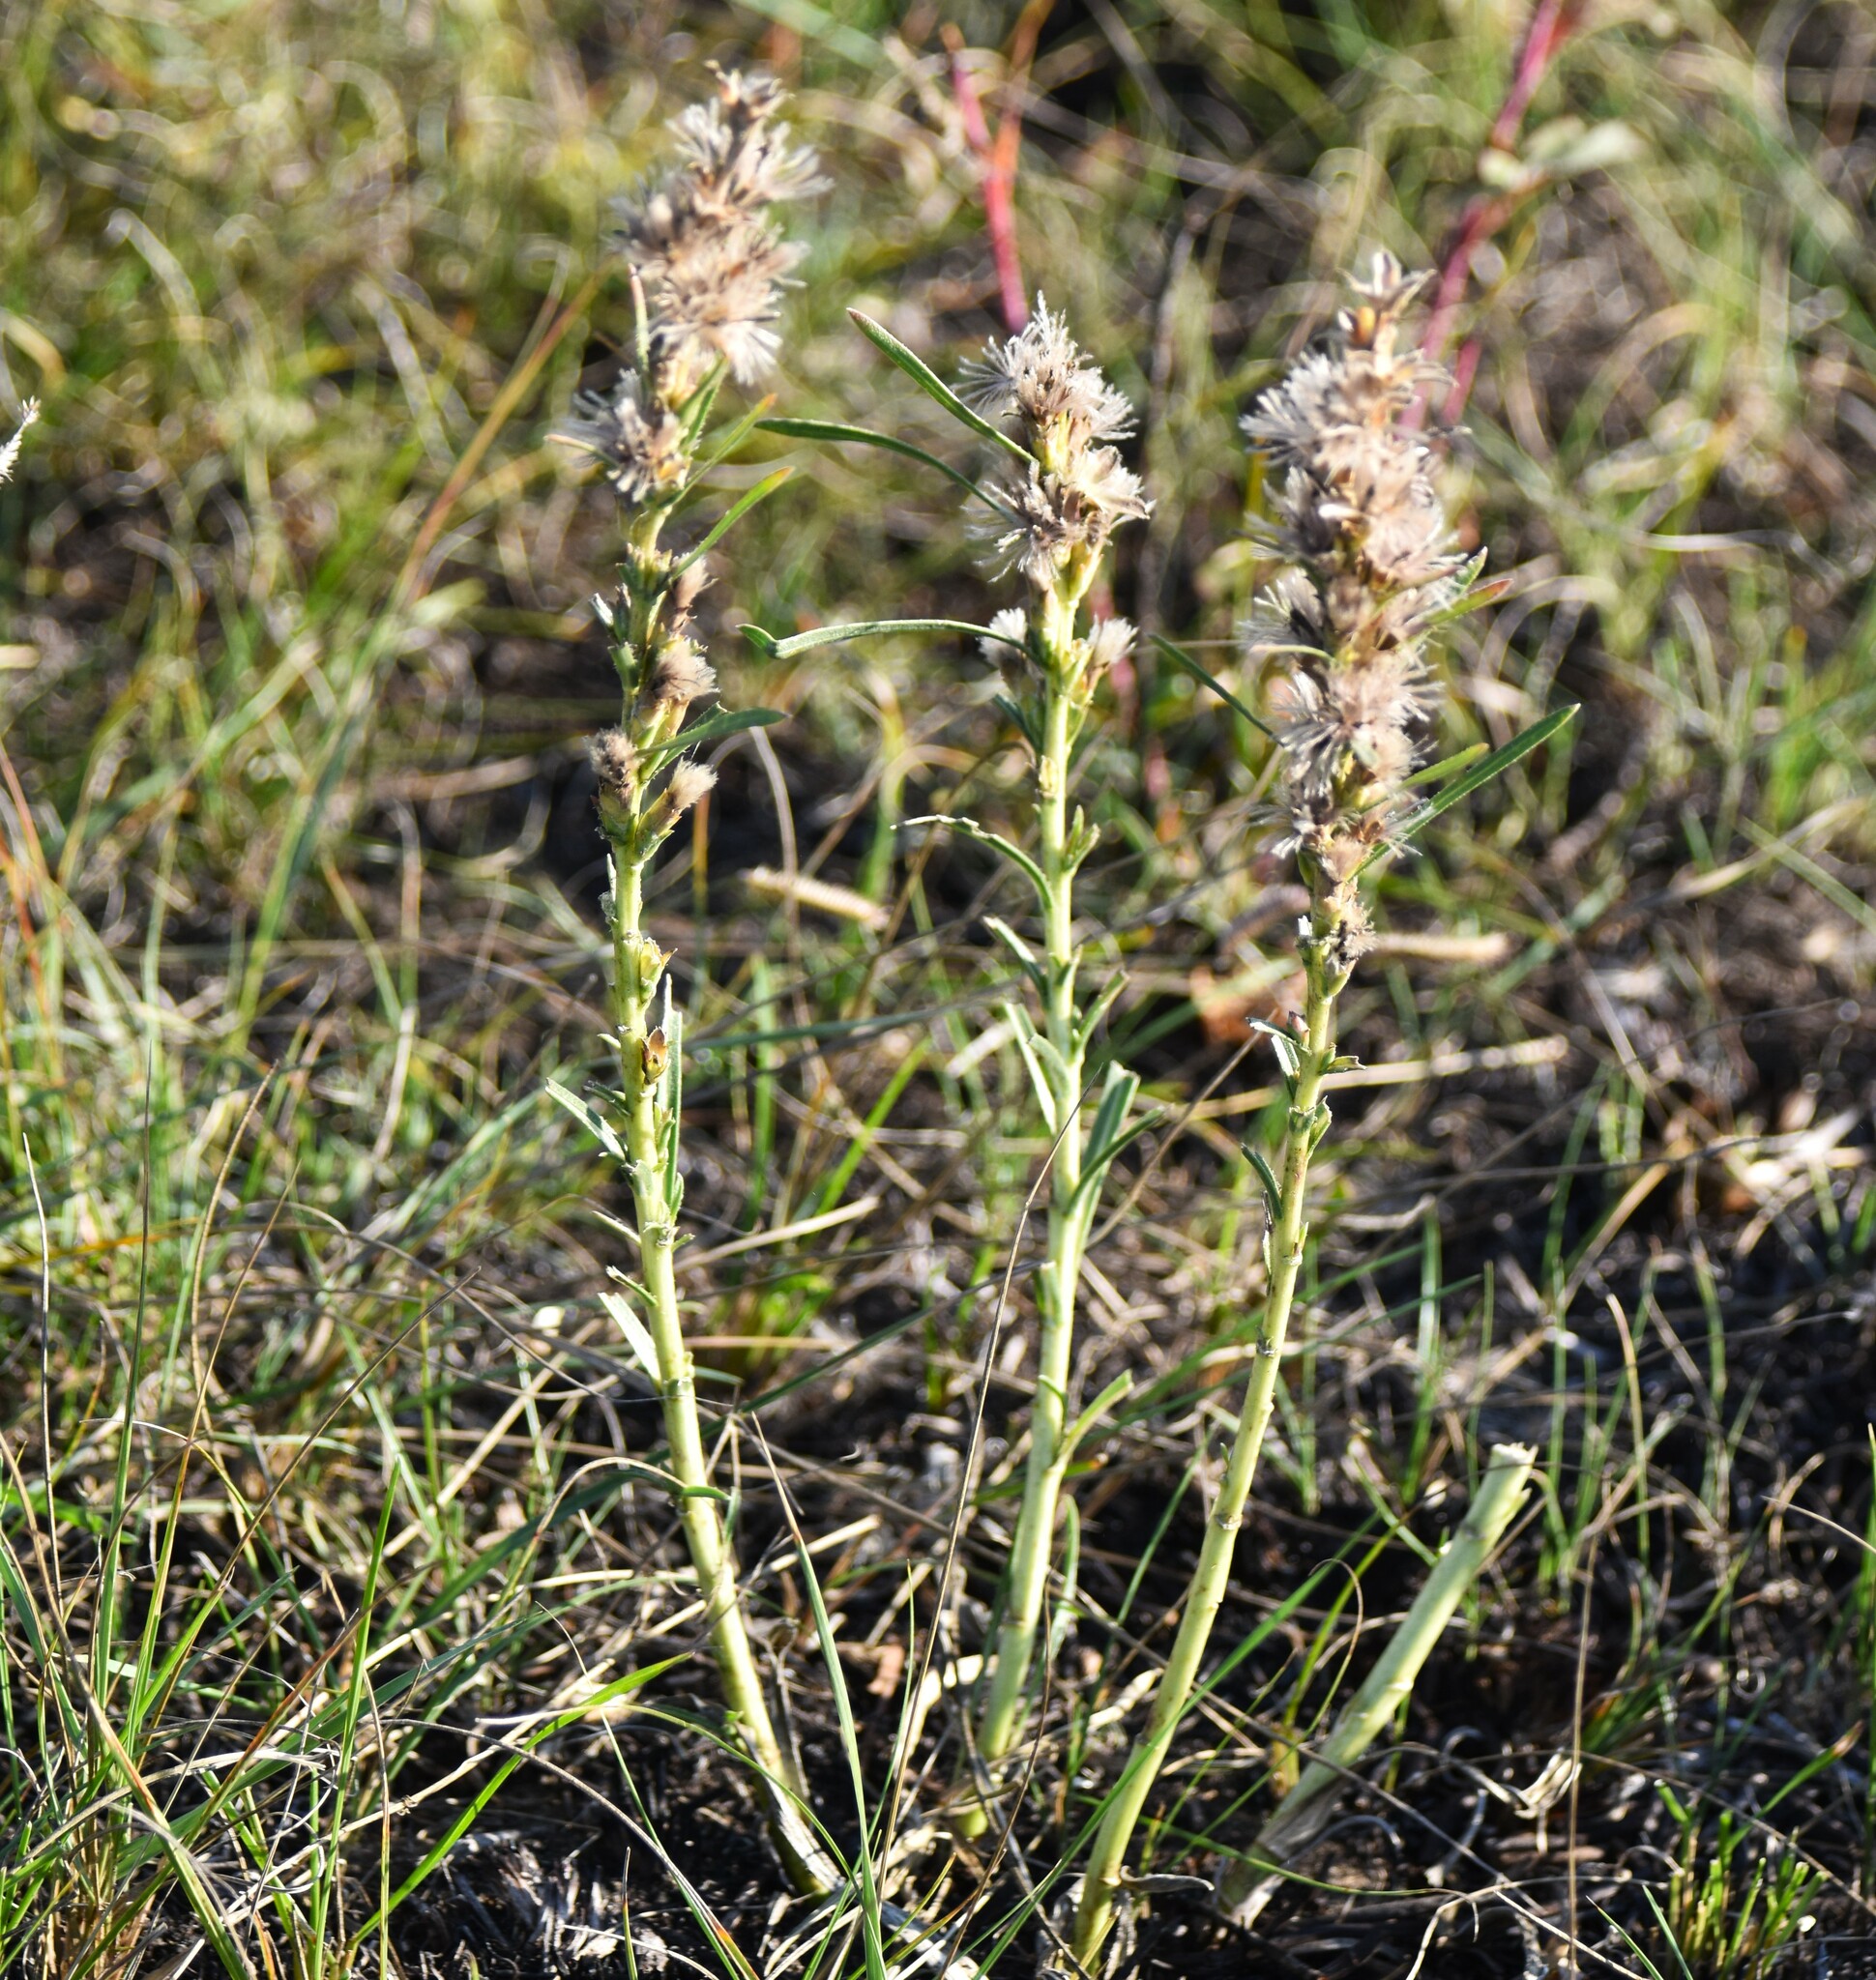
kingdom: Plantae
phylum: Tracheophyta
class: Magnoliopsida
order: Asterales
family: Asteraceae
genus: Liatris
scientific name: Liatris punctata
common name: Dotted gayfeather
